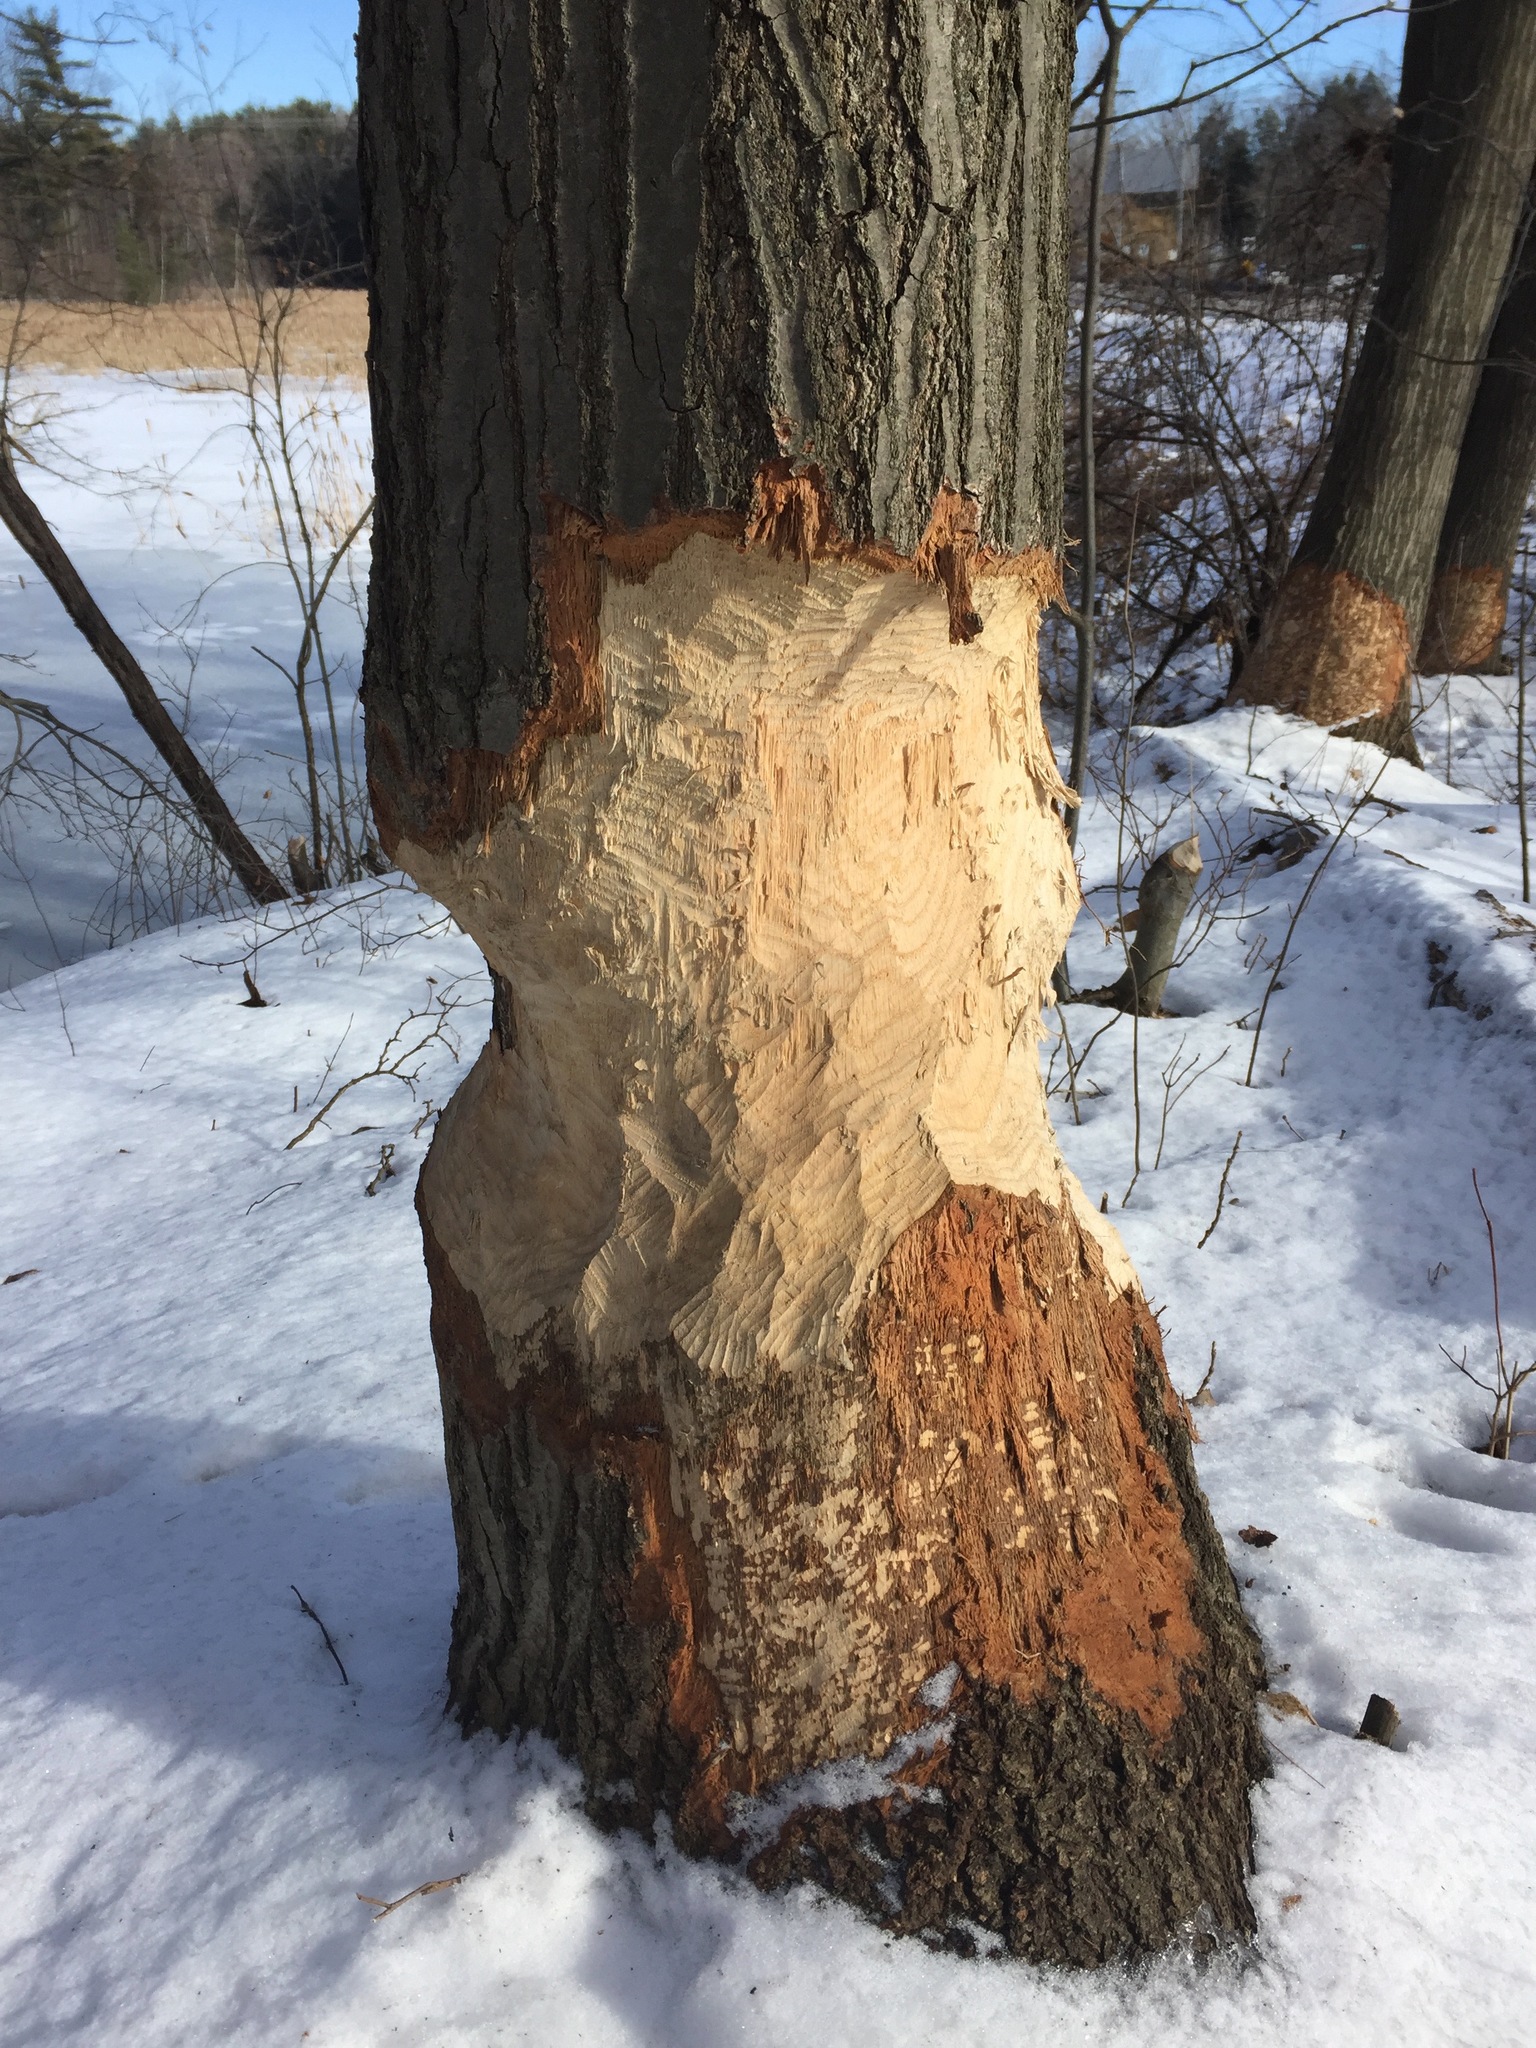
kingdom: Animalia
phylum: Chordata
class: Mammalia
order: Rodentia
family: Castoridae
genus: Castor
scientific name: Castor canadensis
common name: American beaver
